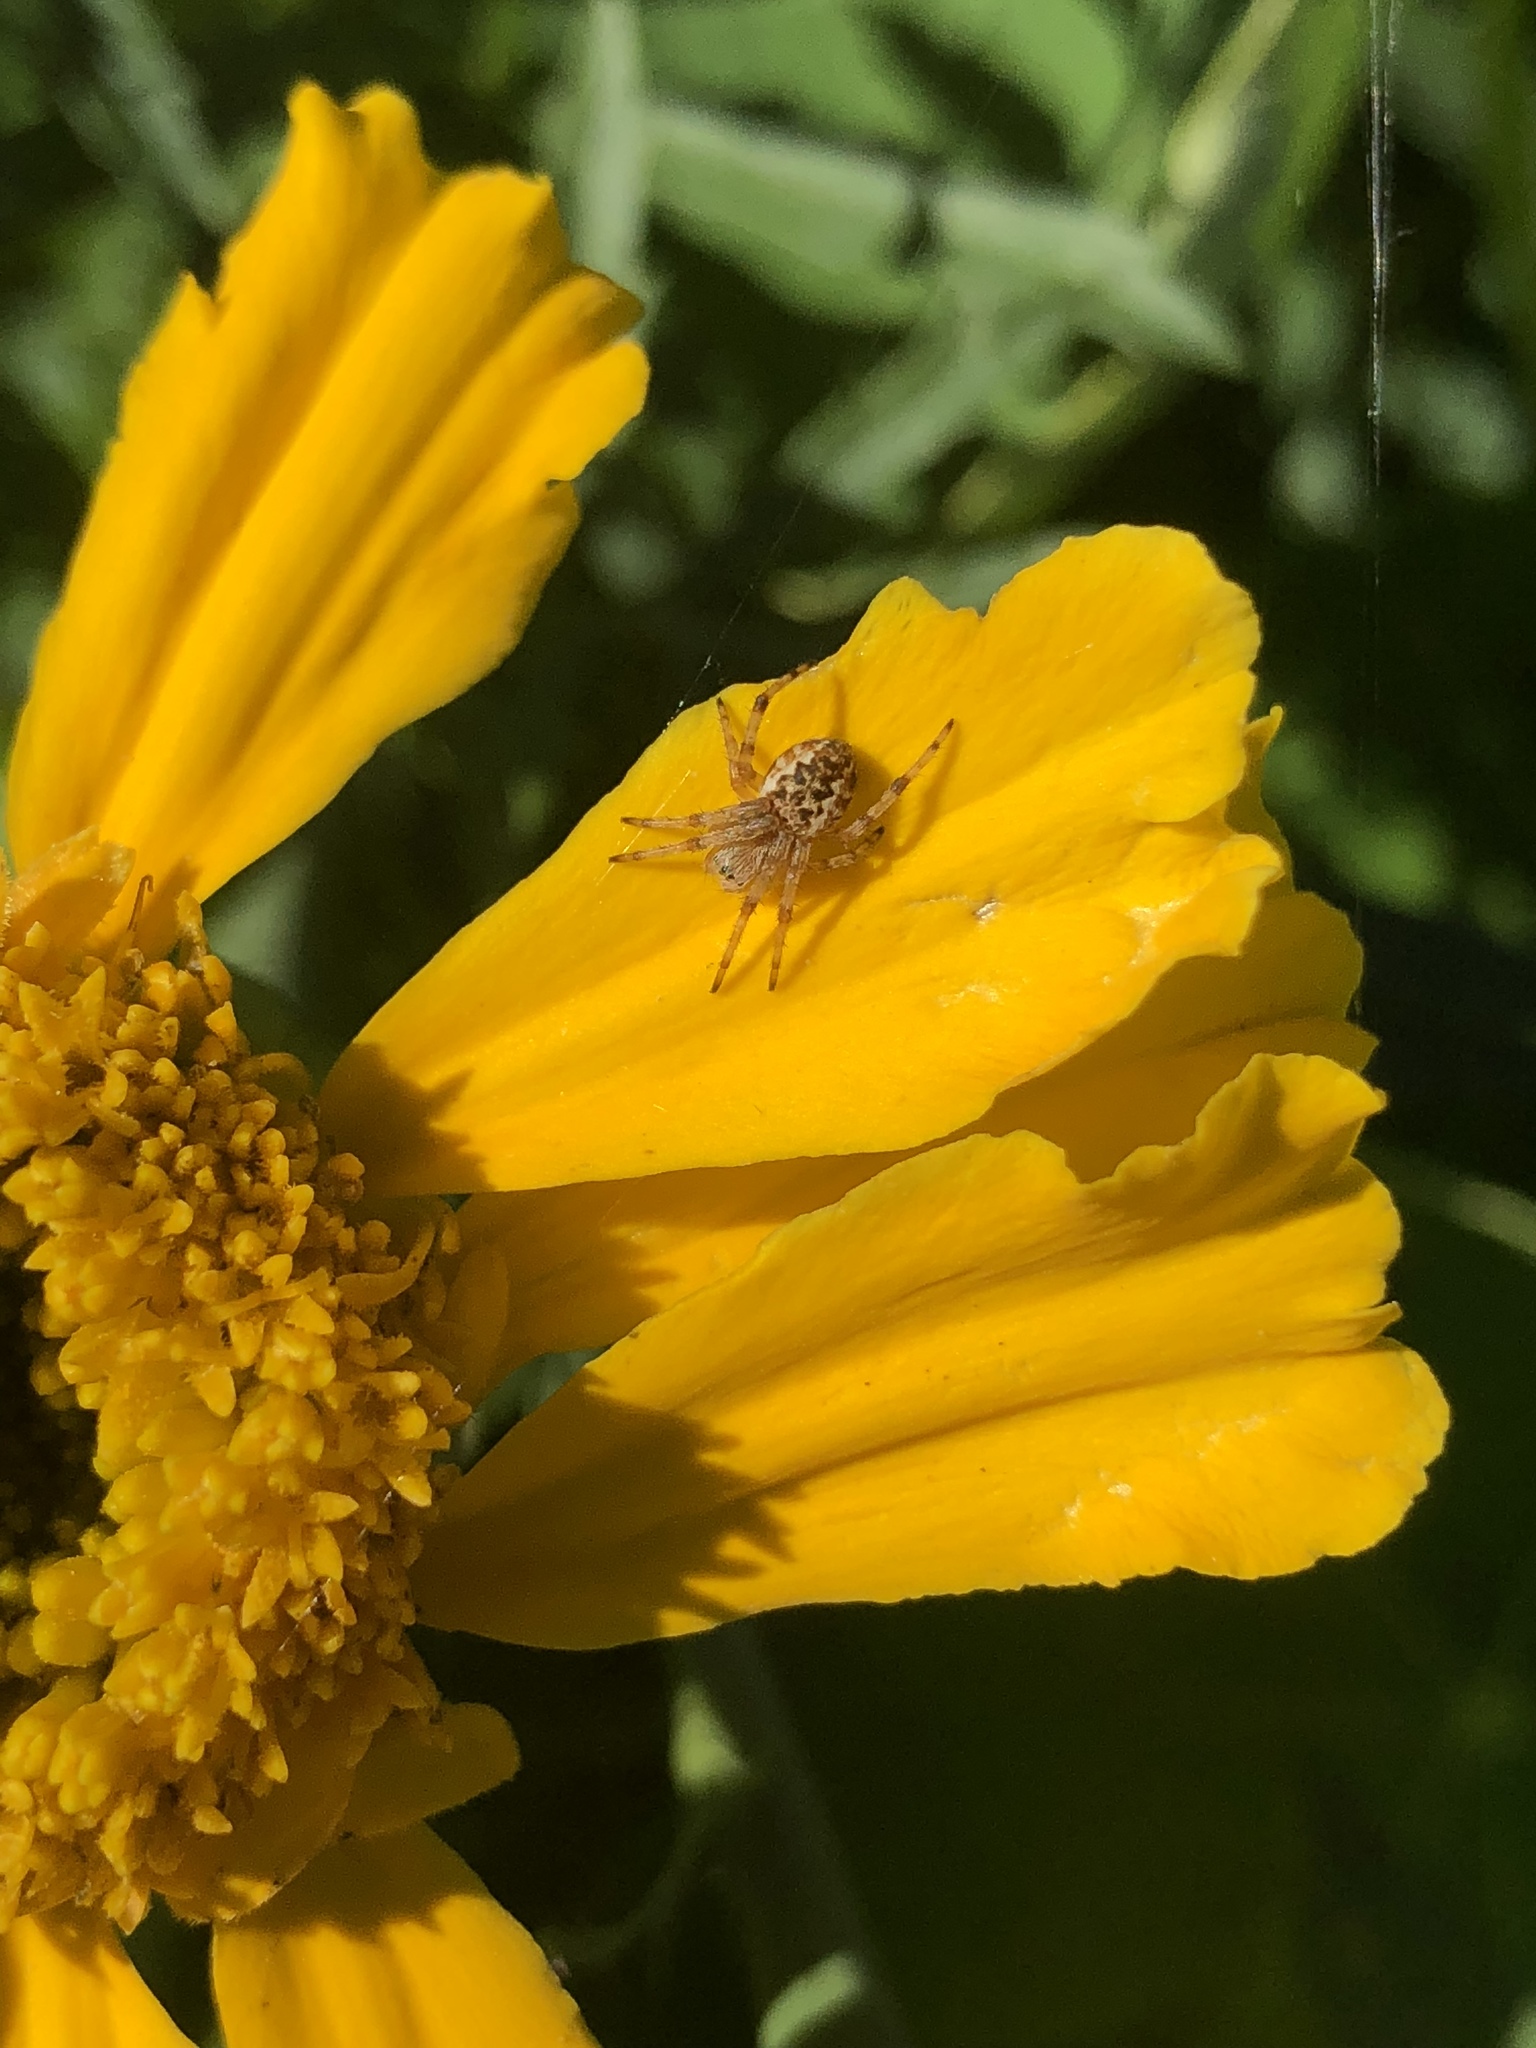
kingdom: Animalia
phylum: Arthropoda
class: Arachnida
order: Araneae
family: Araneidae
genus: Salsa
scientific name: Salsa fuliginata
